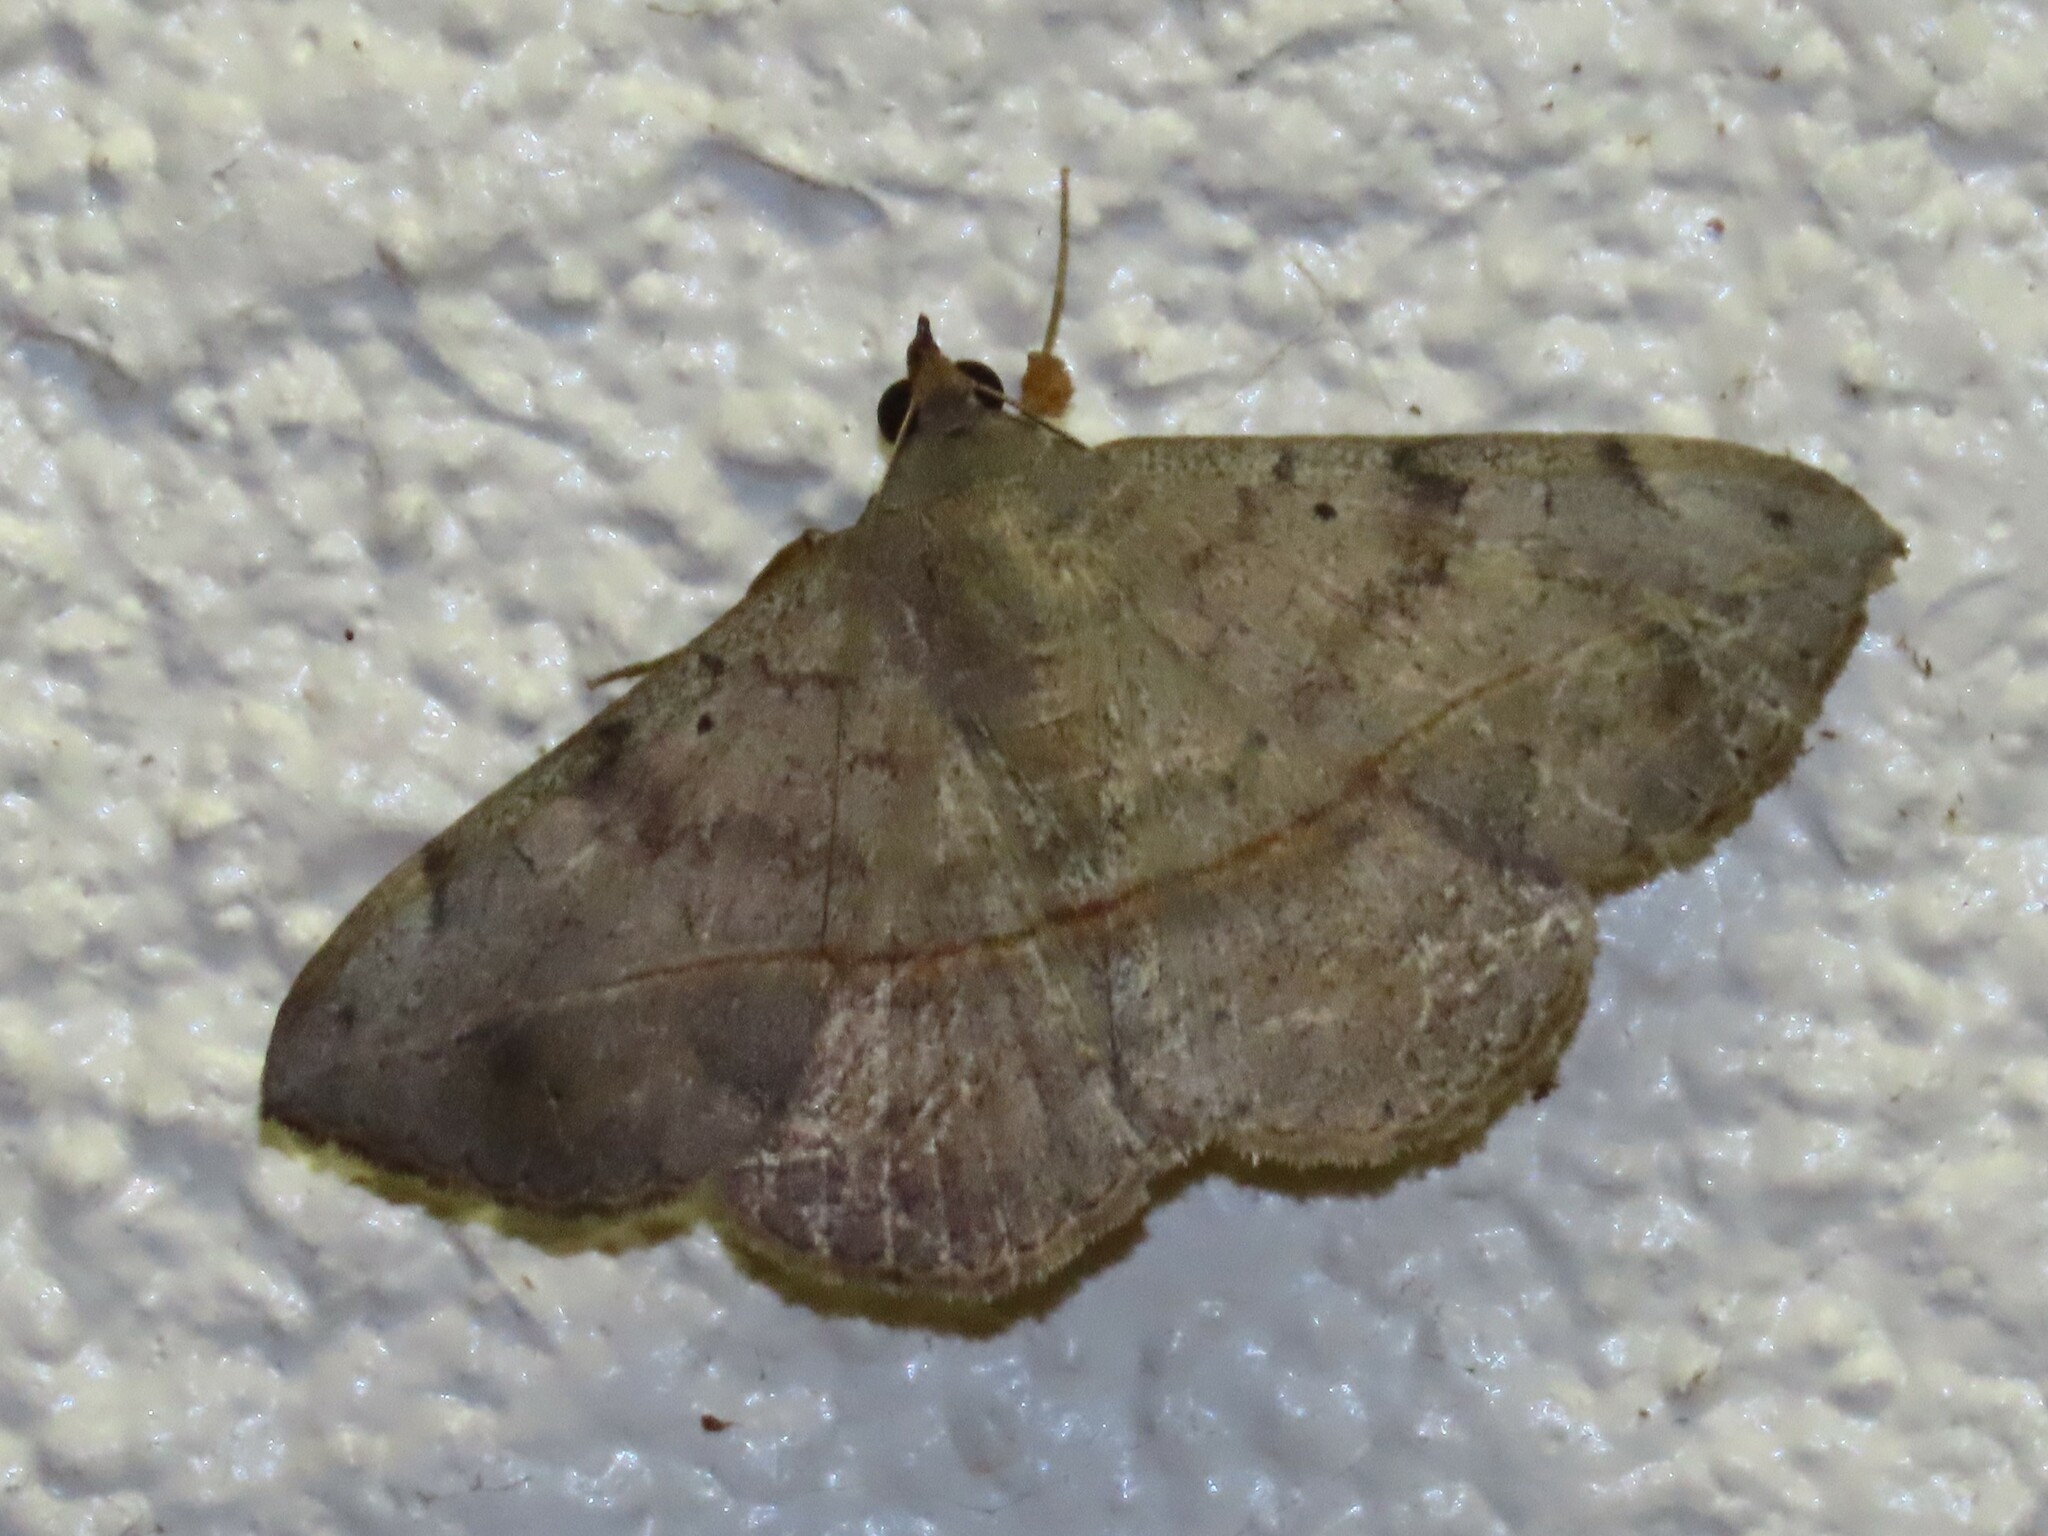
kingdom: Animalia
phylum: Arthropoda
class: Insecta
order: Lepidoptera
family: Erebidae
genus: Anticarsia
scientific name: Anticarsia gemmatalis
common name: Cutworm moth
